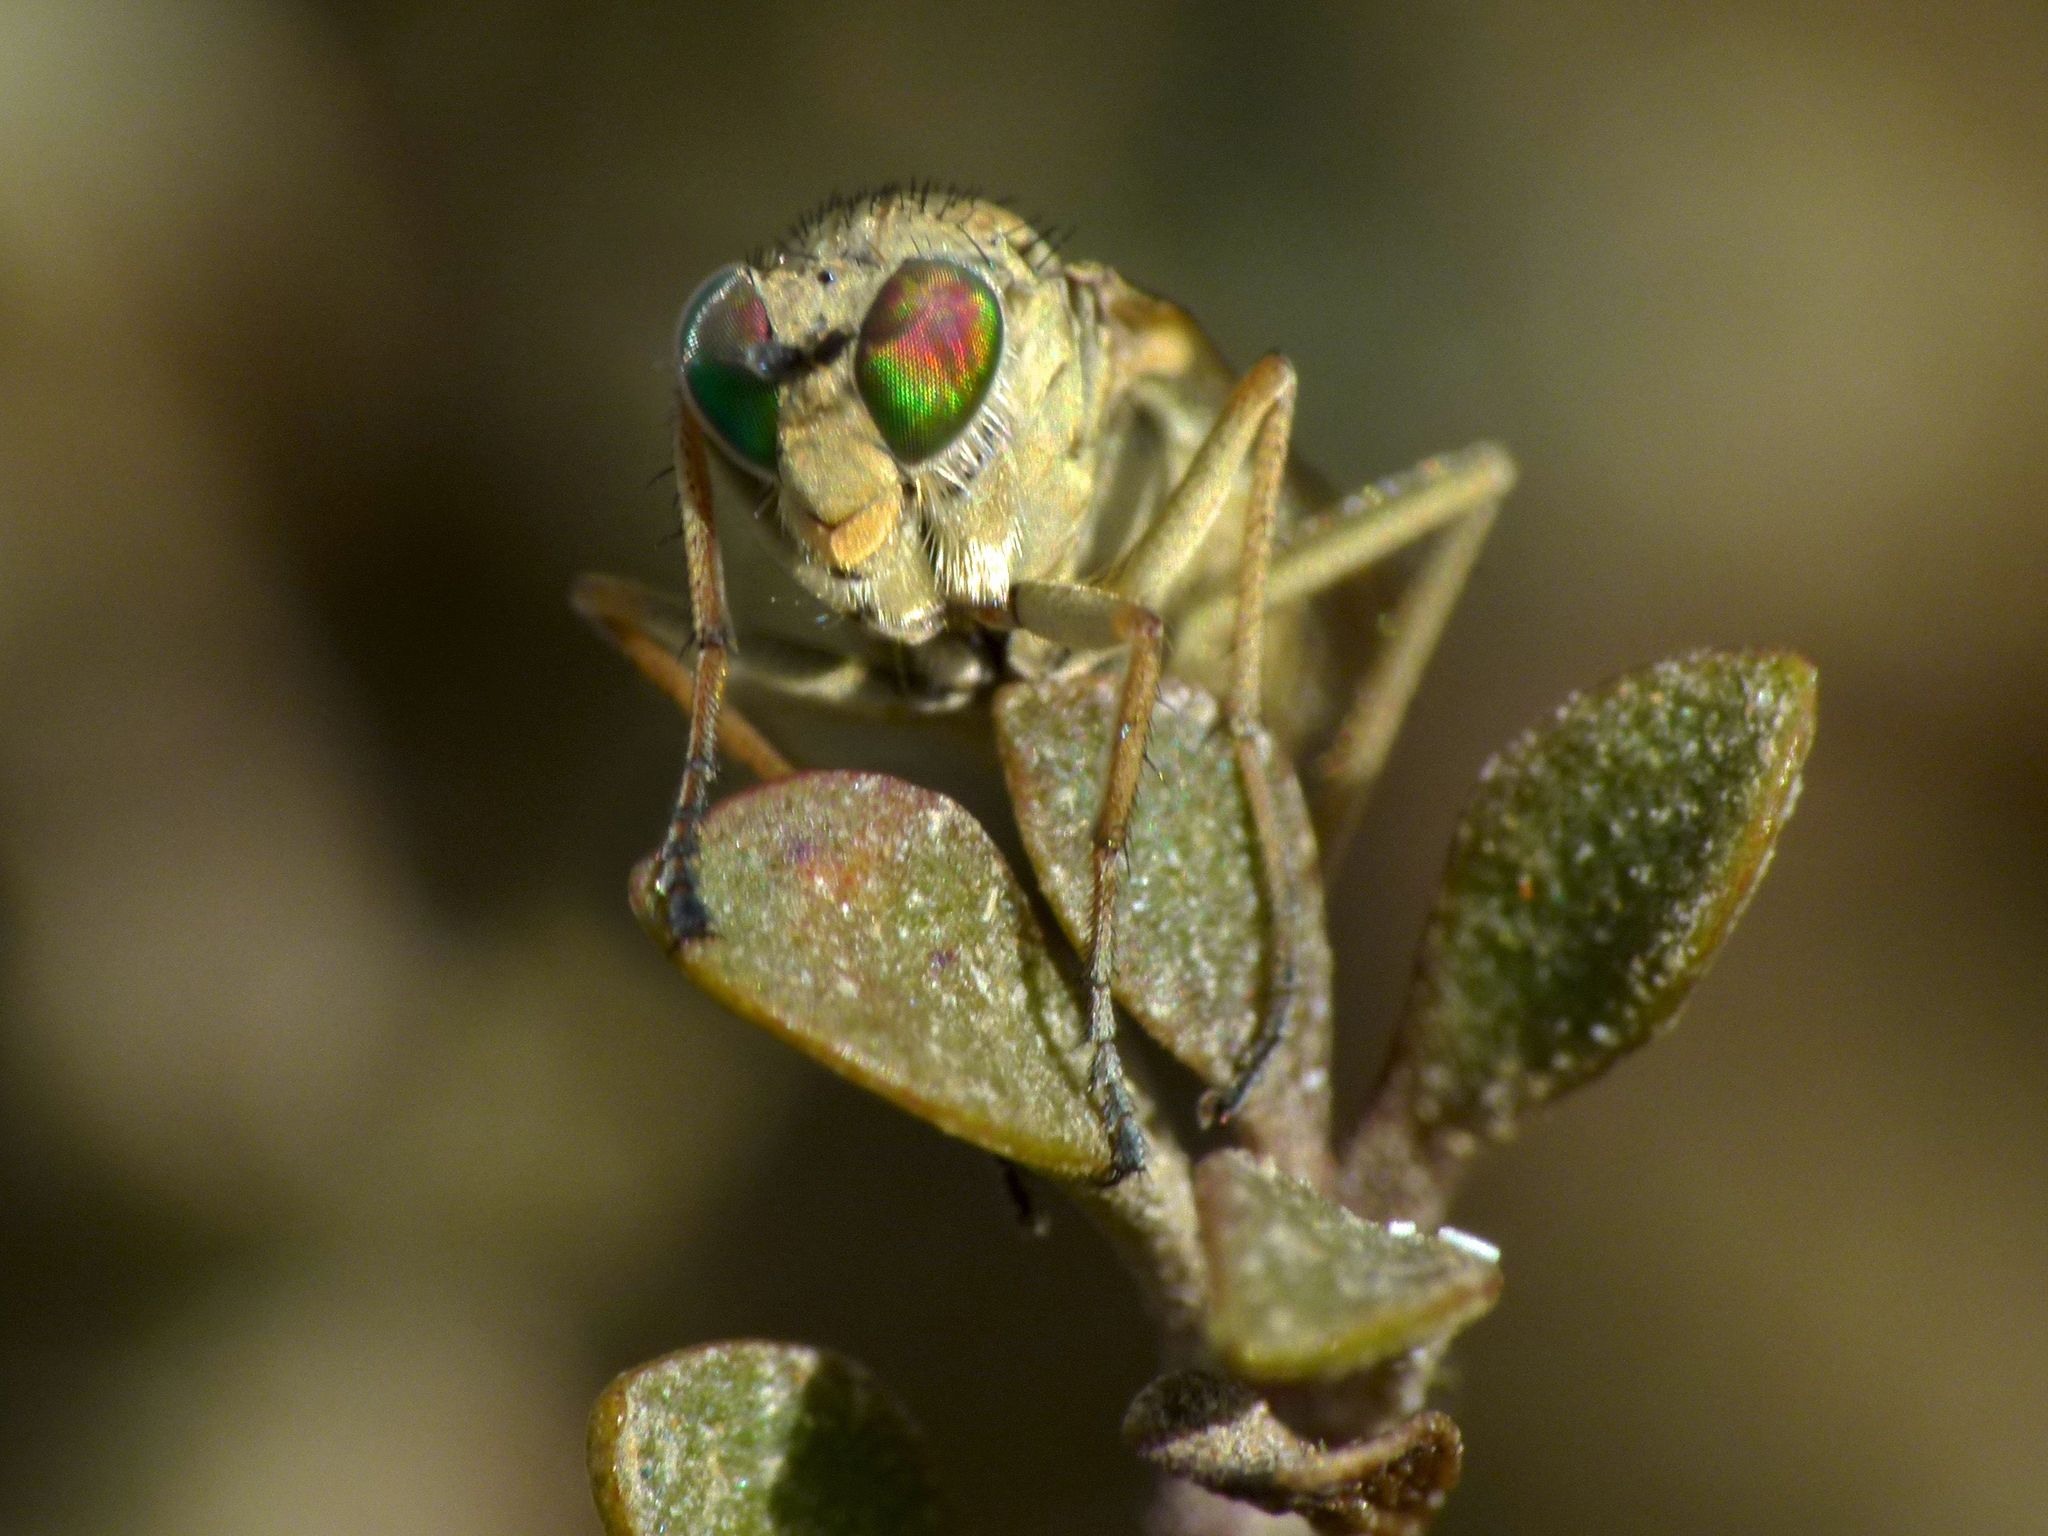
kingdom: Animalia
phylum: Arthropoda
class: Insecta
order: Diptera
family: Dolichopodidae
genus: Scorpiurus
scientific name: Scorpiurus aramoana
